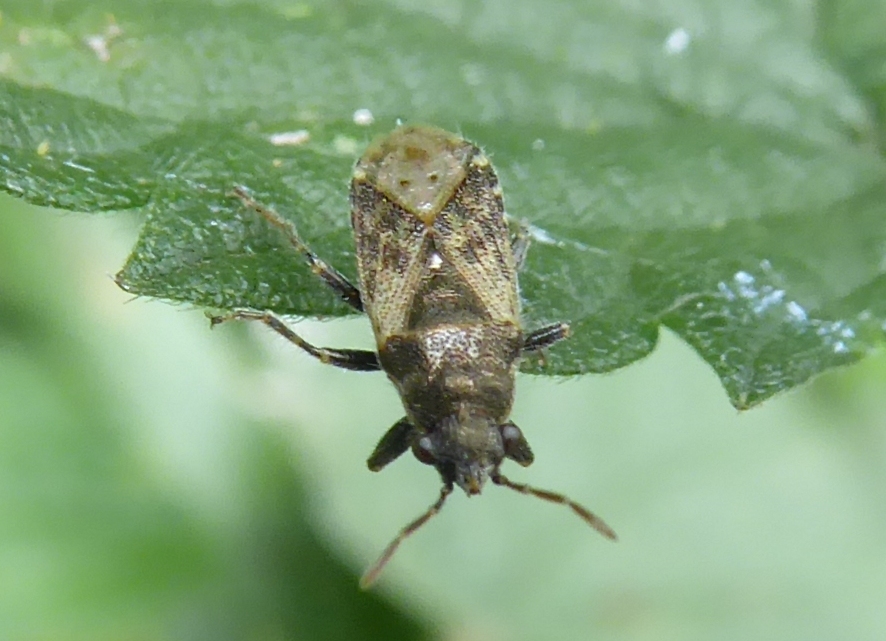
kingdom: Animalia
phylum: Arthropoda
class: Insecta
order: Hemiptera
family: Heterogastridae
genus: Heterogaster
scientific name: Heterogaster urticae
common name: Seed bug
